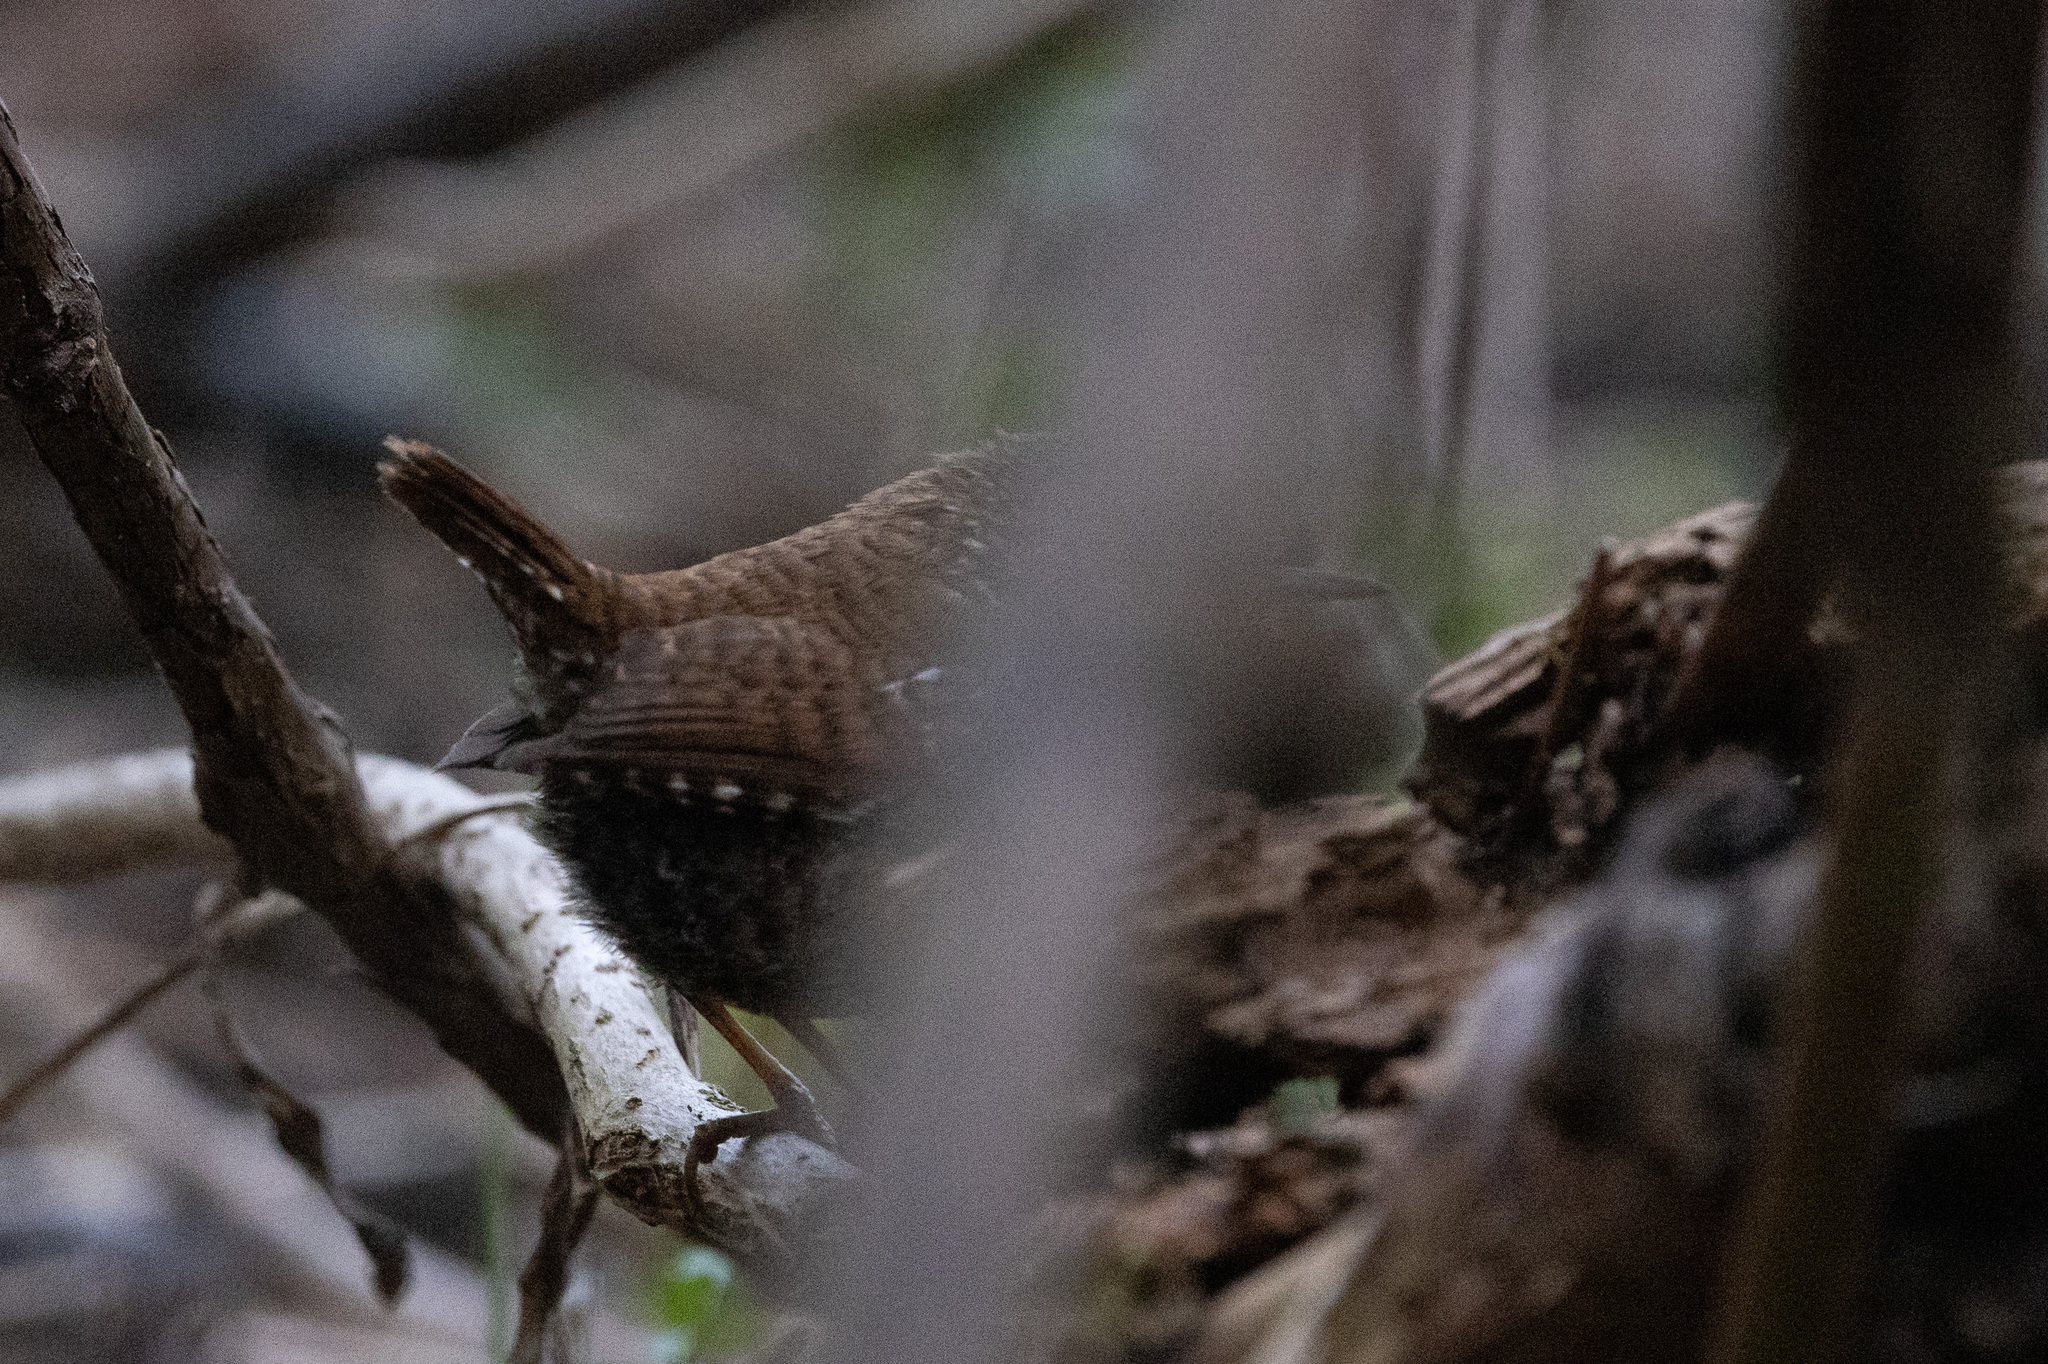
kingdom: Animalia
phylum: Chordata
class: Aves
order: Passeriformes
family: Troglodytidae
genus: Troglodytes
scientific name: Troglodytes hiemalis
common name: Winter wren
